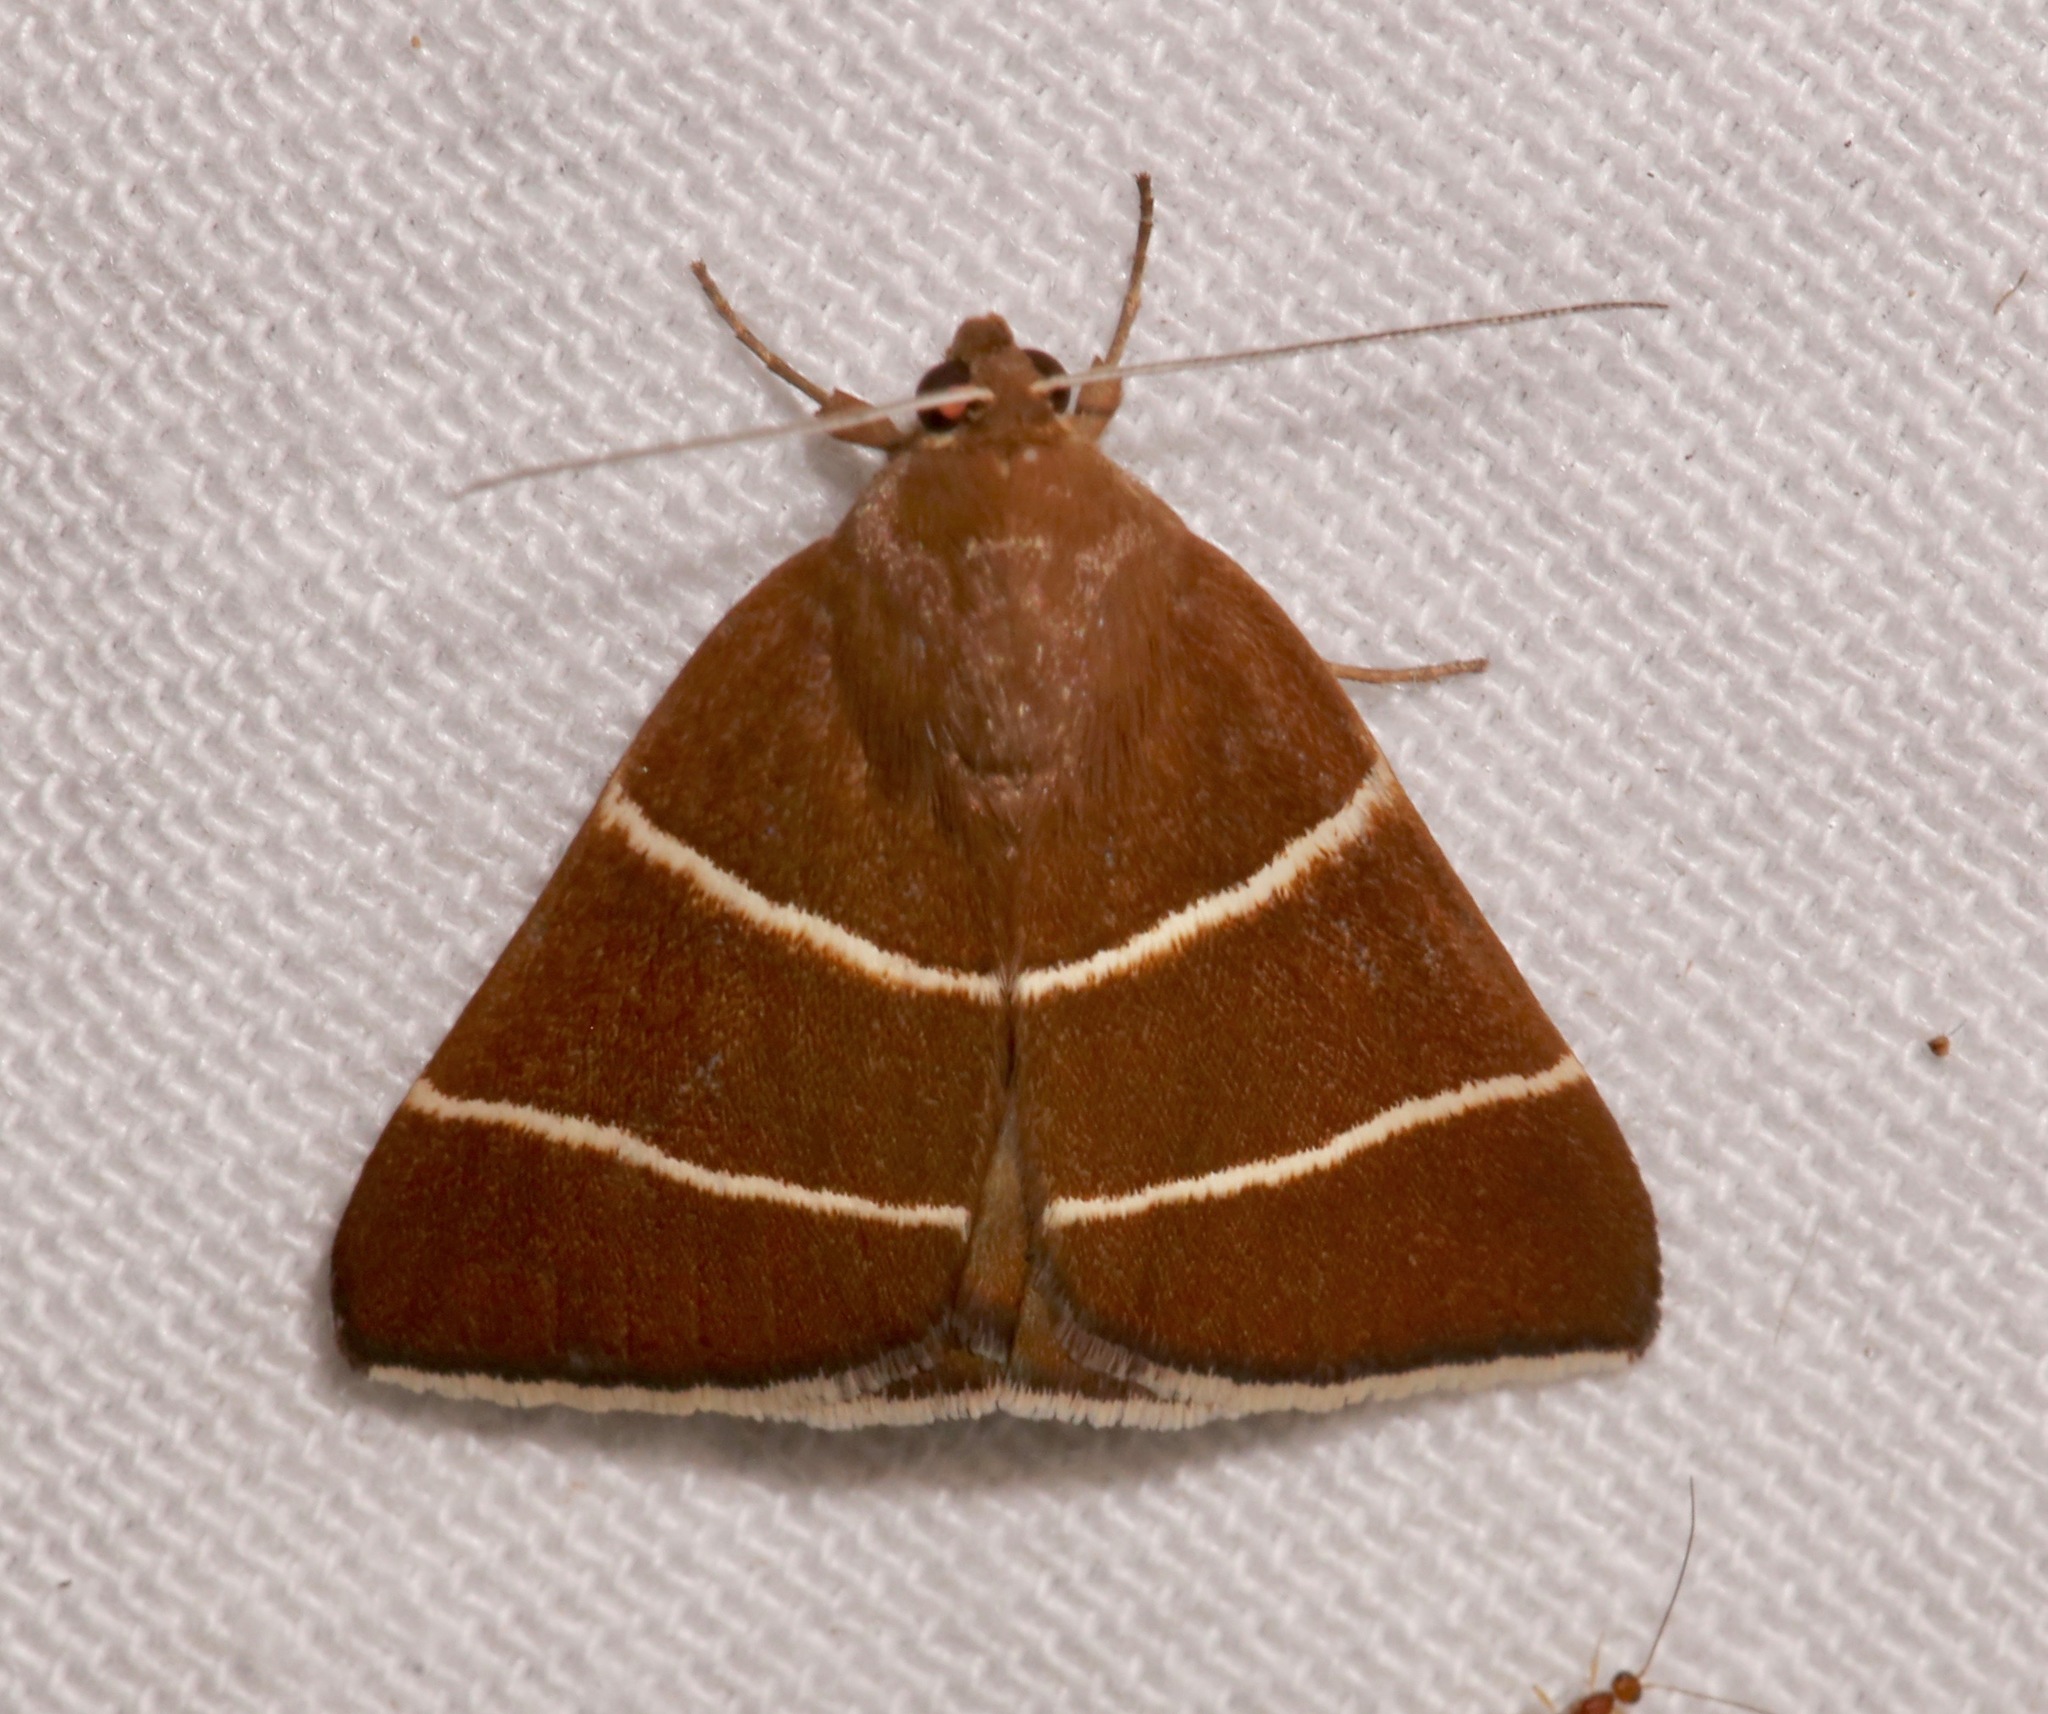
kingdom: Animalia
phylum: Arthropoda
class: Insecta
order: Lepidoptera
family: Erebidae
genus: Argyrostrotis
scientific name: Argyrostrotis quadrifilaris
